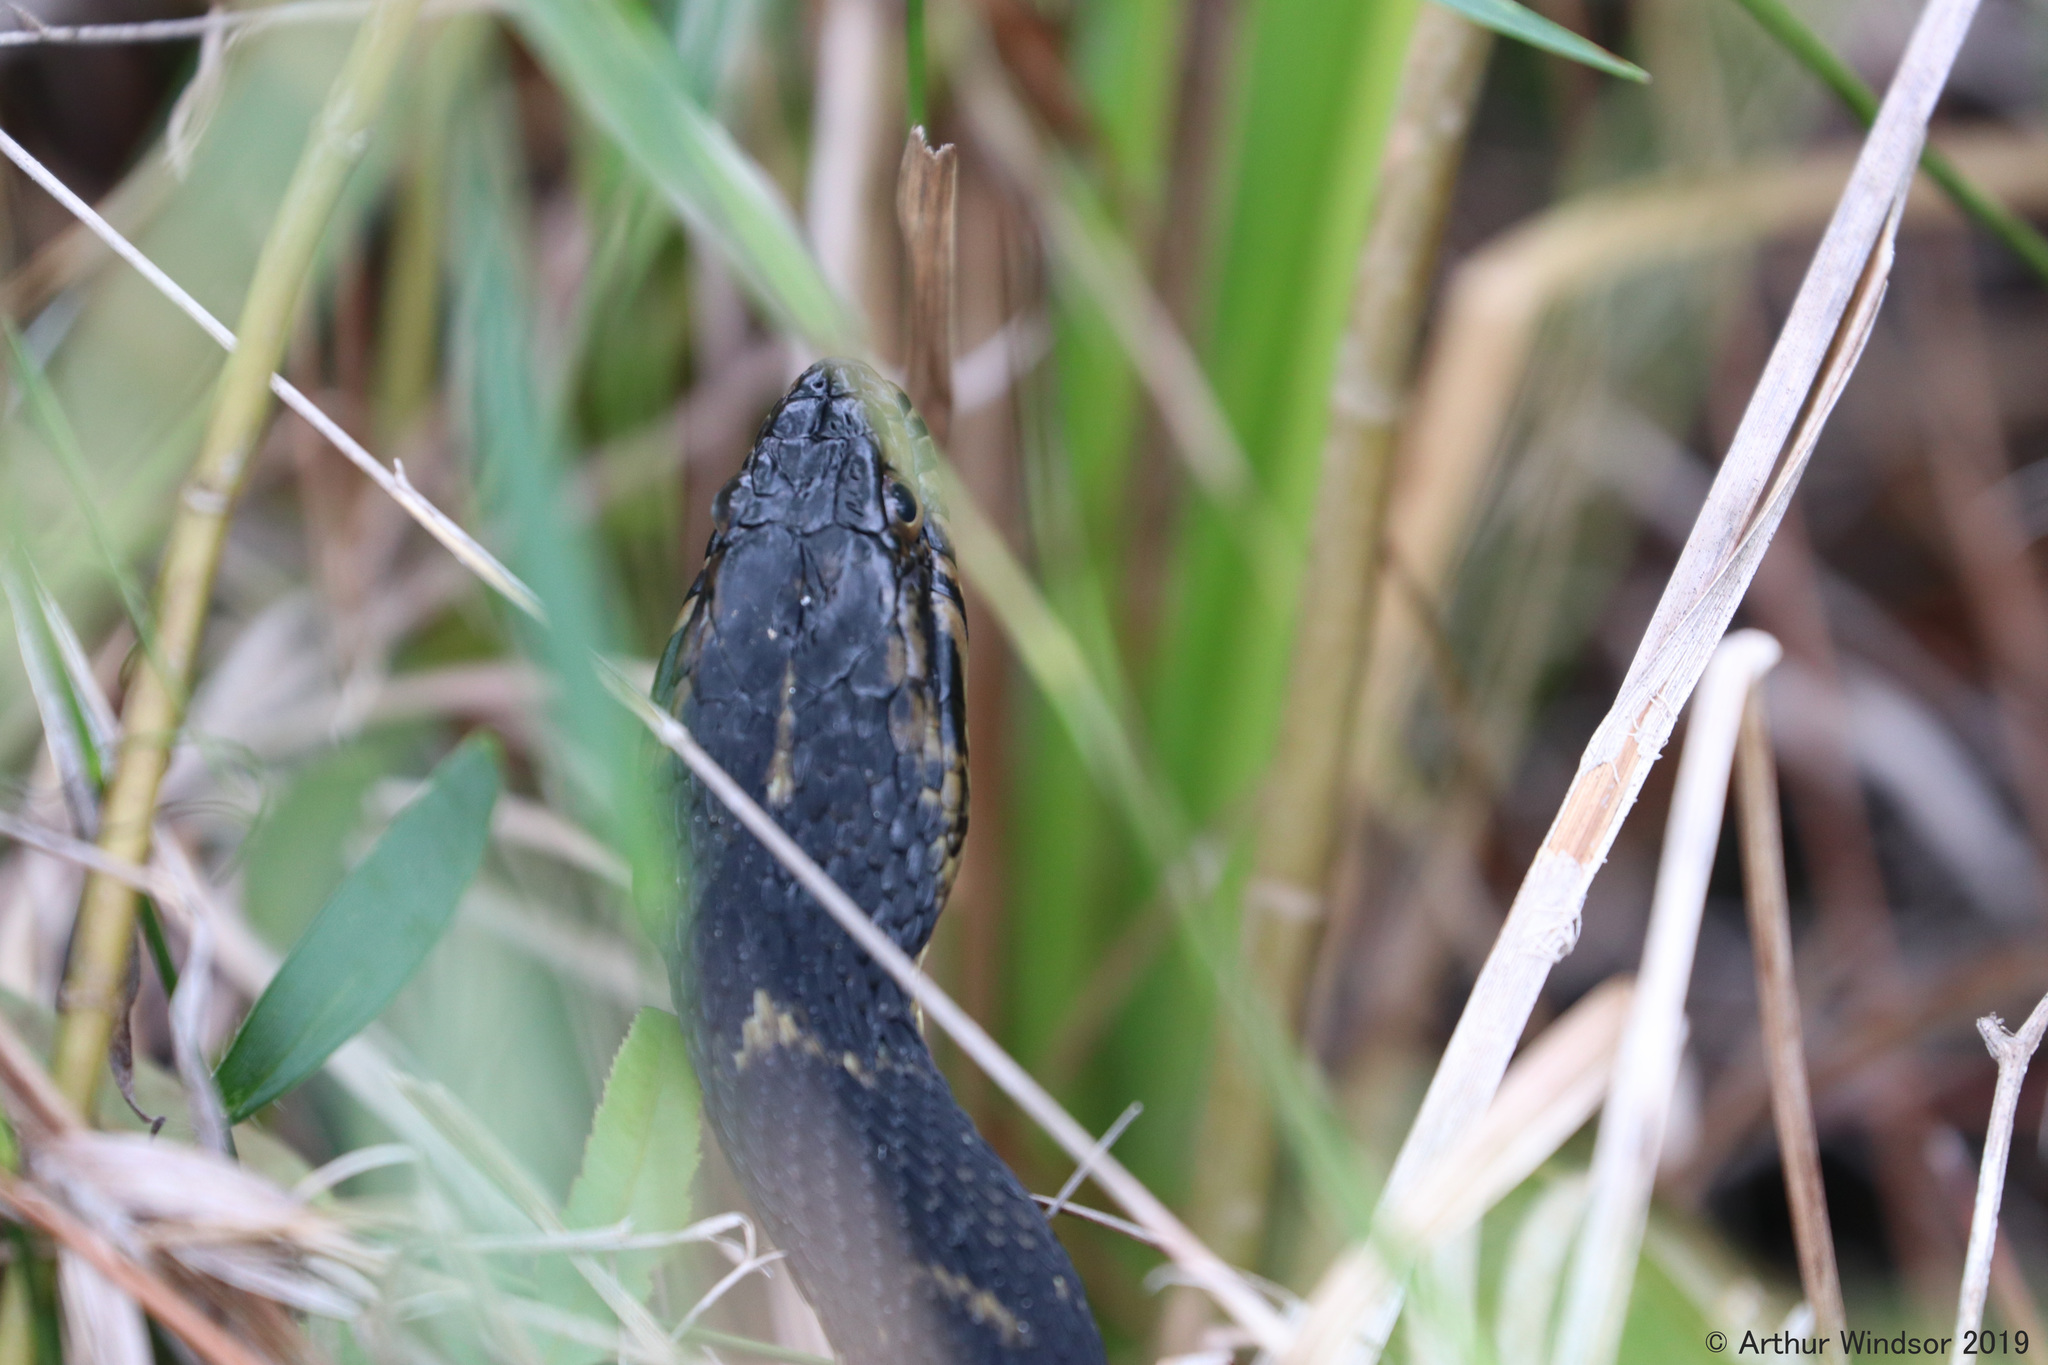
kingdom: Animalia
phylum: Chordata
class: Squamata
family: Colubridae
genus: Nerodia
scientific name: Nerodia fasciata
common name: Southern water snake
